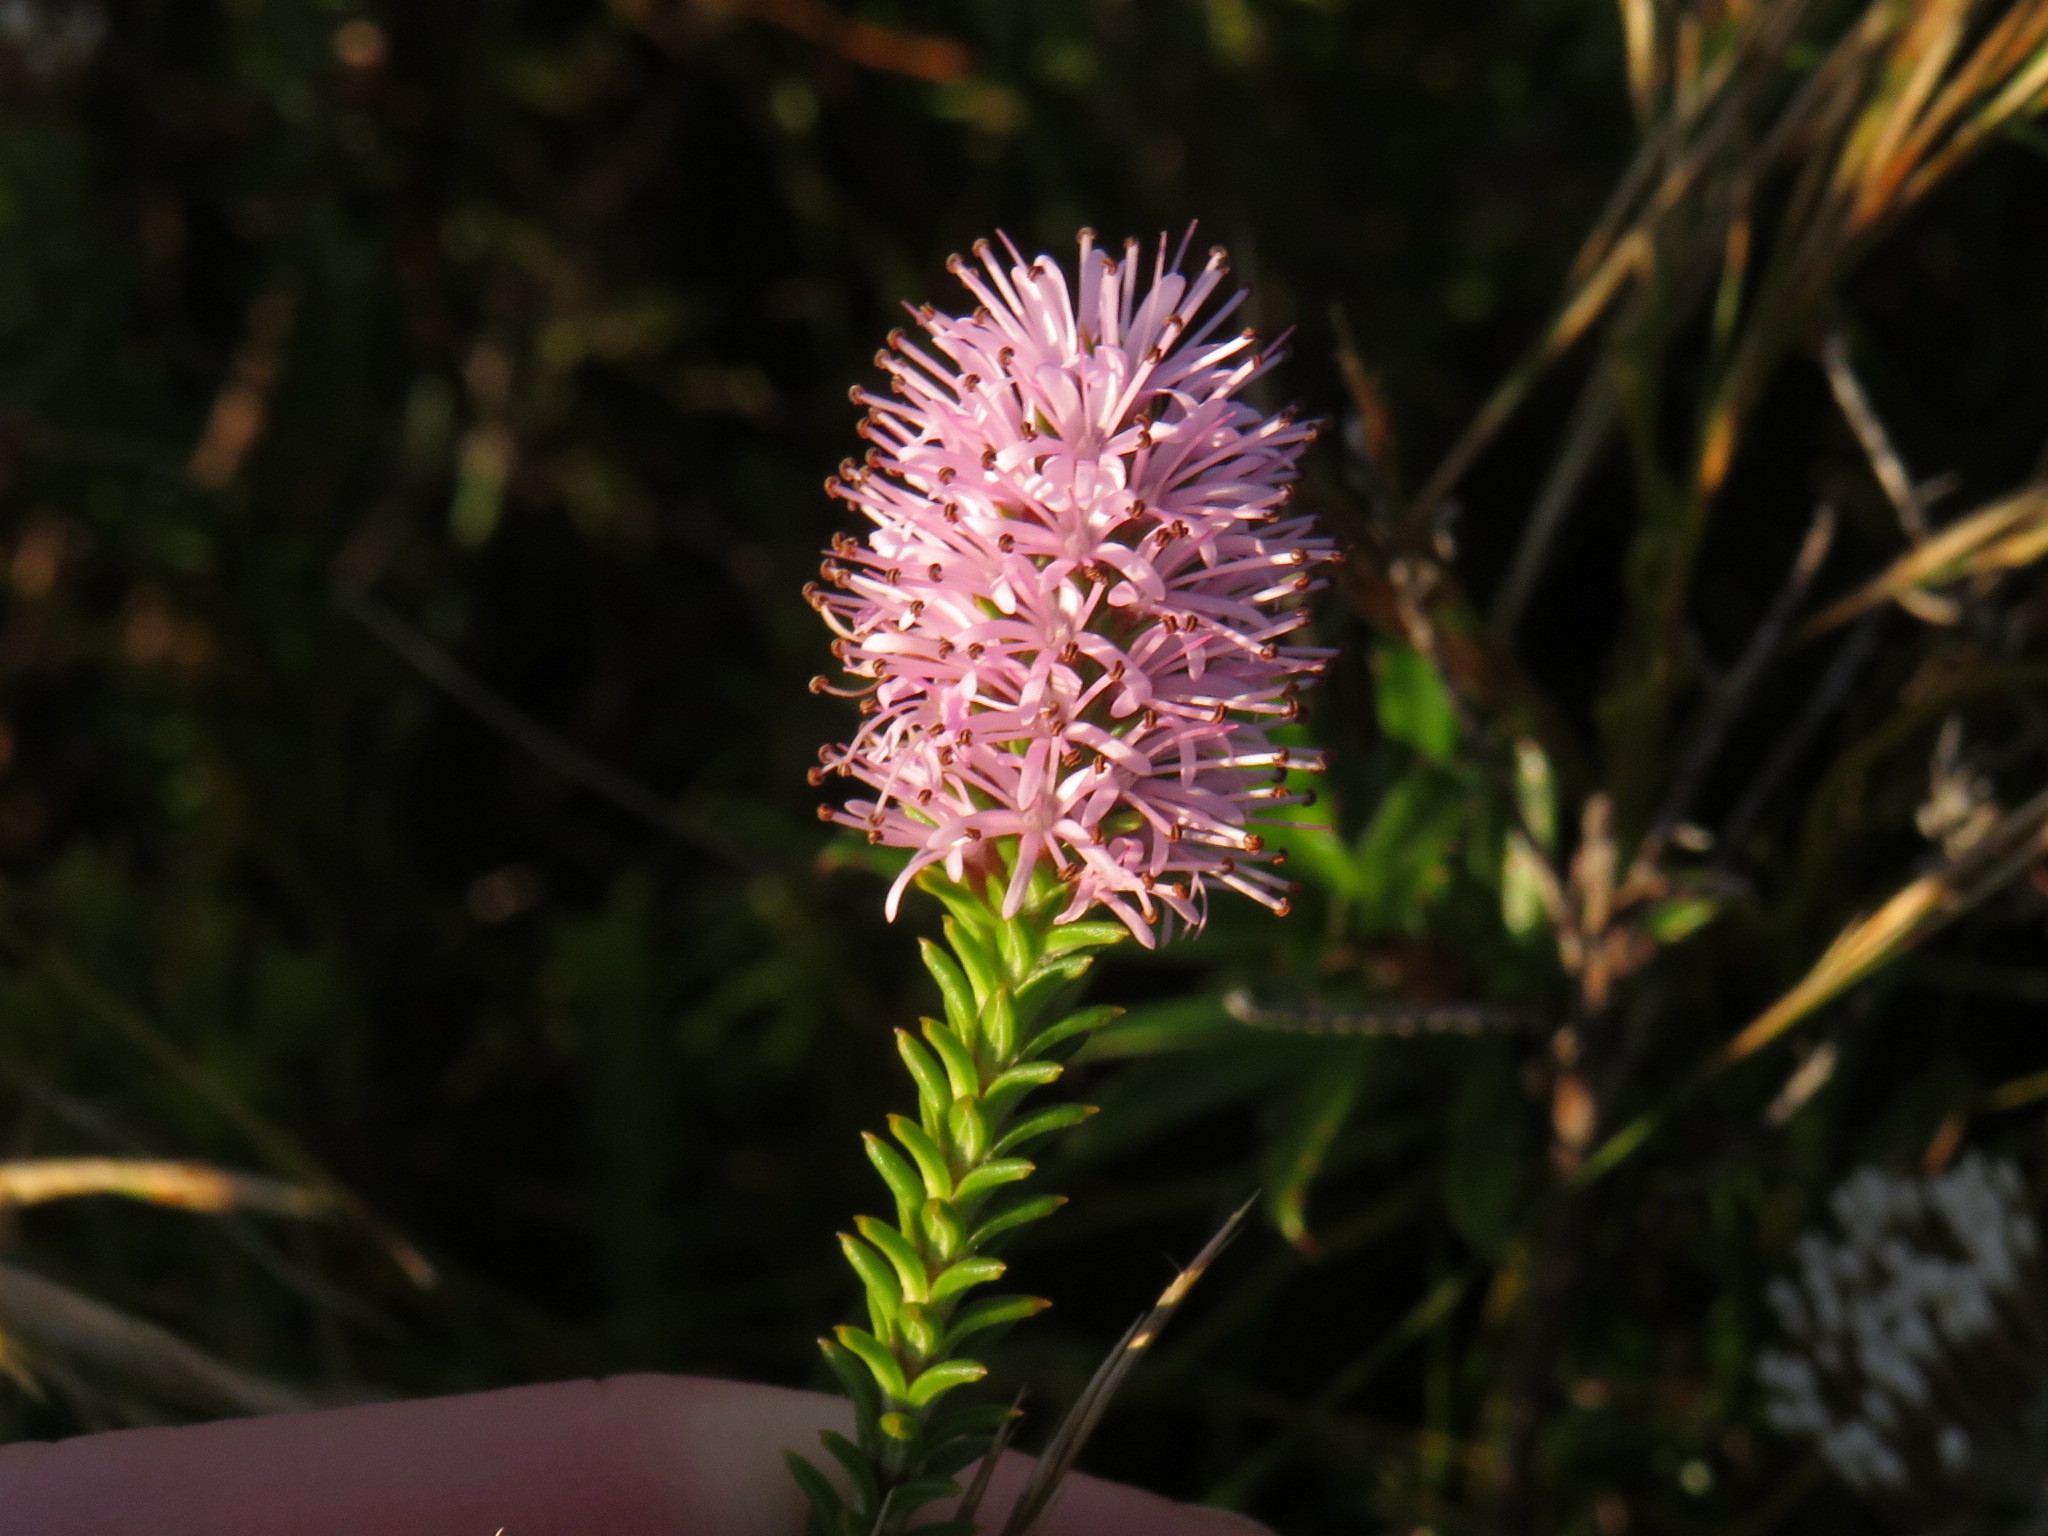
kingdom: Plantae
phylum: Tracheophyta
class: Magnoliopsida
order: Lamiales
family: Stilbaceae
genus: Stilbe
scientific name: Stilbe ericoides
